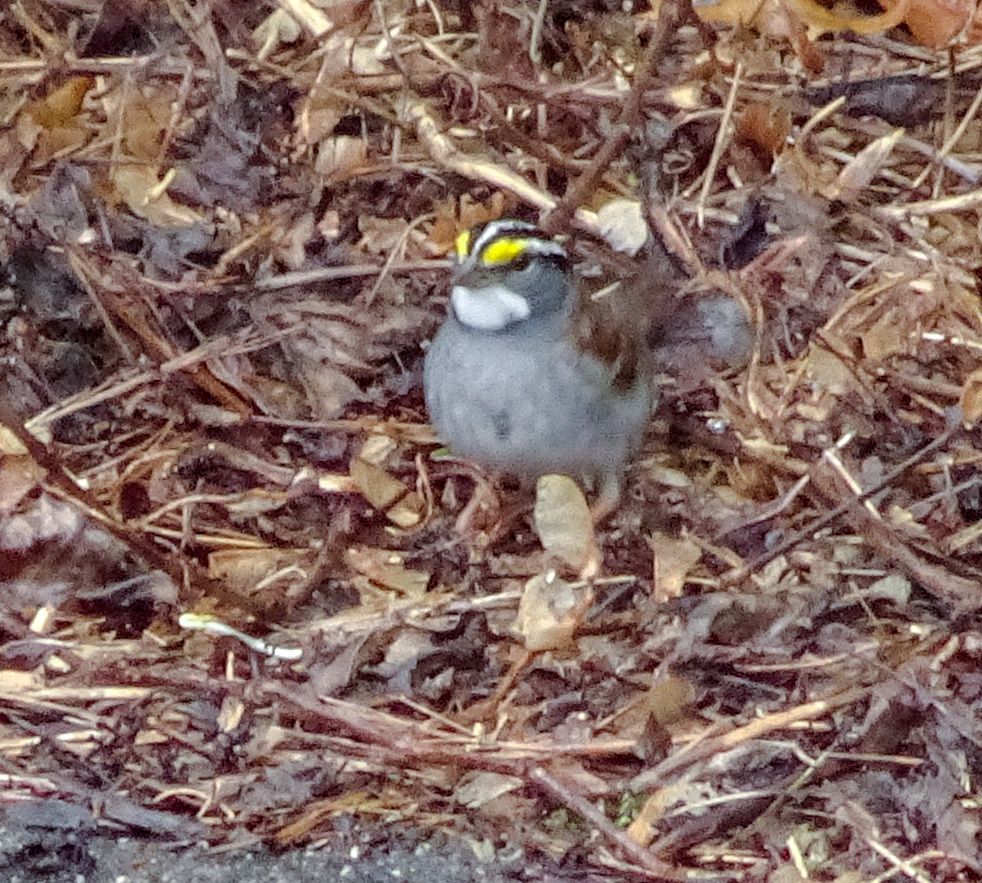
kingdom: Animalia
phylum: Chordata
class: Aves
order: Passeriformes
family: Passerellidae
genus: Zonotrichia
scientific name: Zonotrichia albicollis
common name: White-throated sparrow
